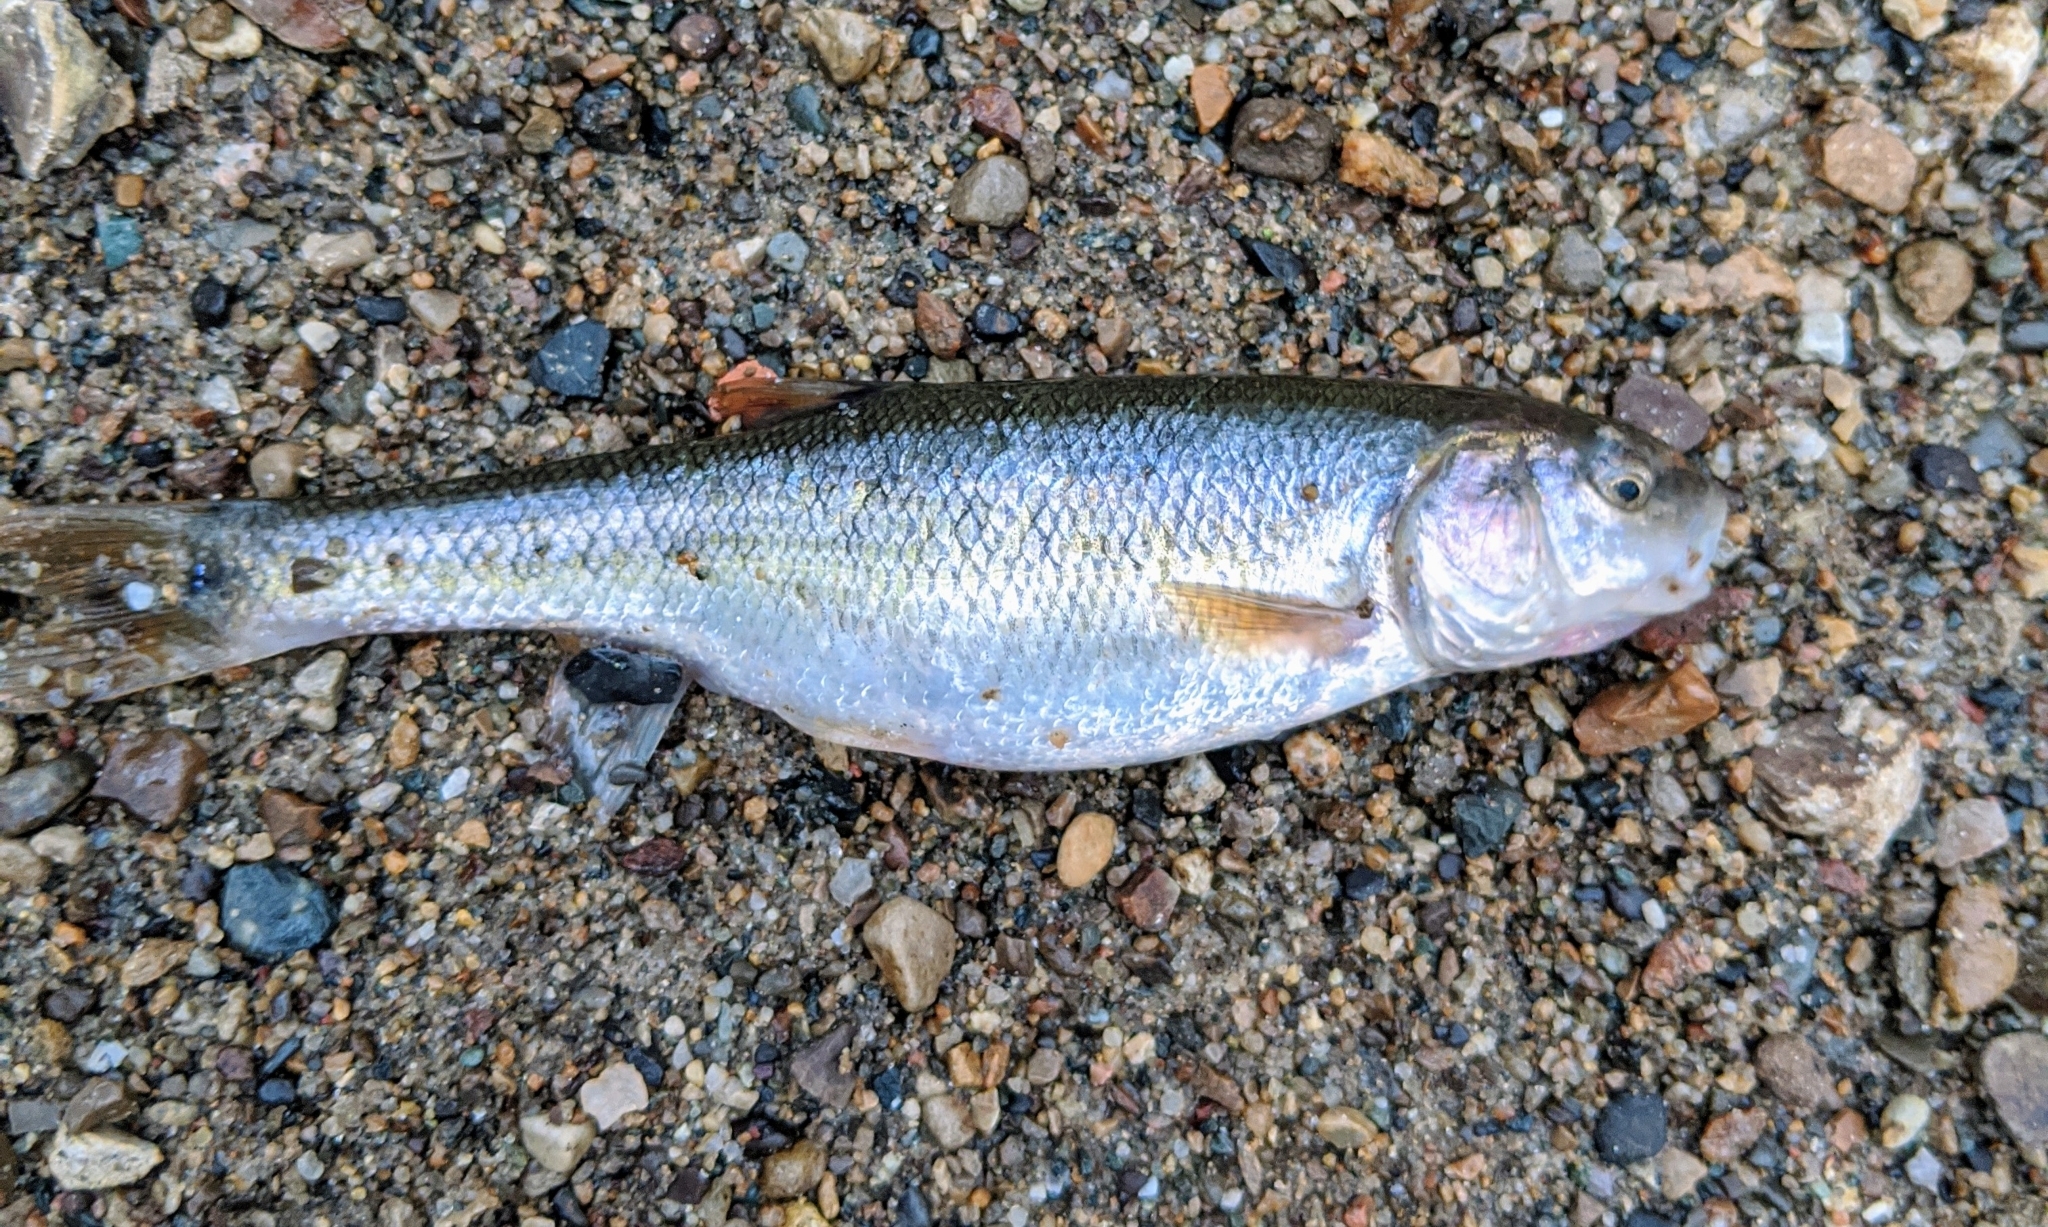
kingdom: Animalia
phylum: Chordata
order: Cypriniformes
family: Cyprinidae
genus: Semotilus
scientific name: Semotilus atromaculatus
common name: Creek chub
